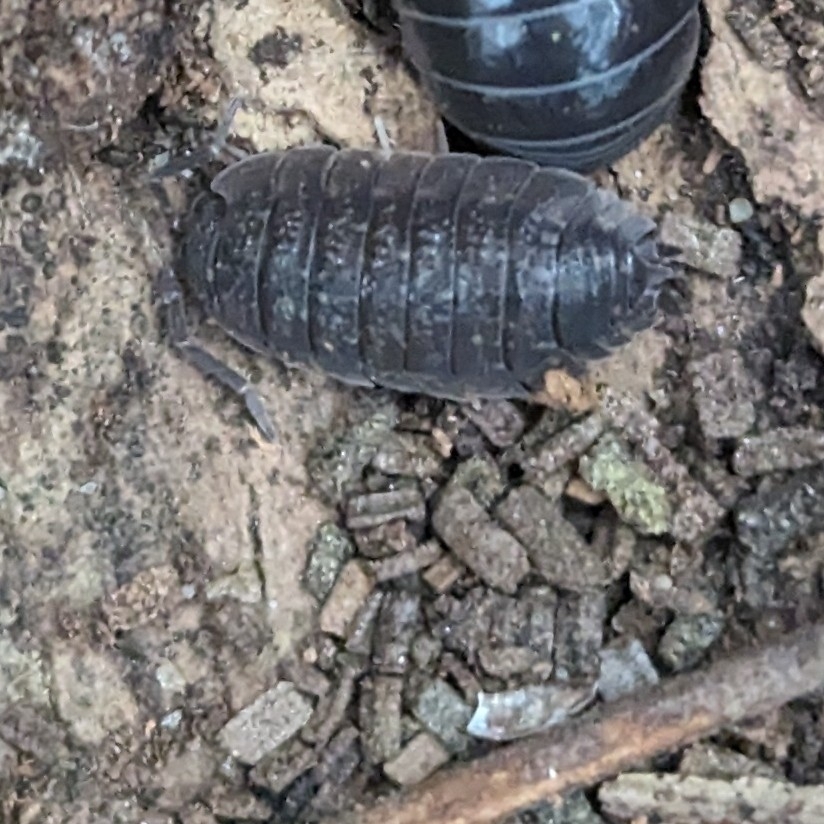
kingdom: Animalia
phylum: Arthropoda
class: Malacostraca
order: Isopoda
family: Porcellionidae
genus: Porcellio
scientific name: Porcellio scaber
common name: Common rough woodlouse
